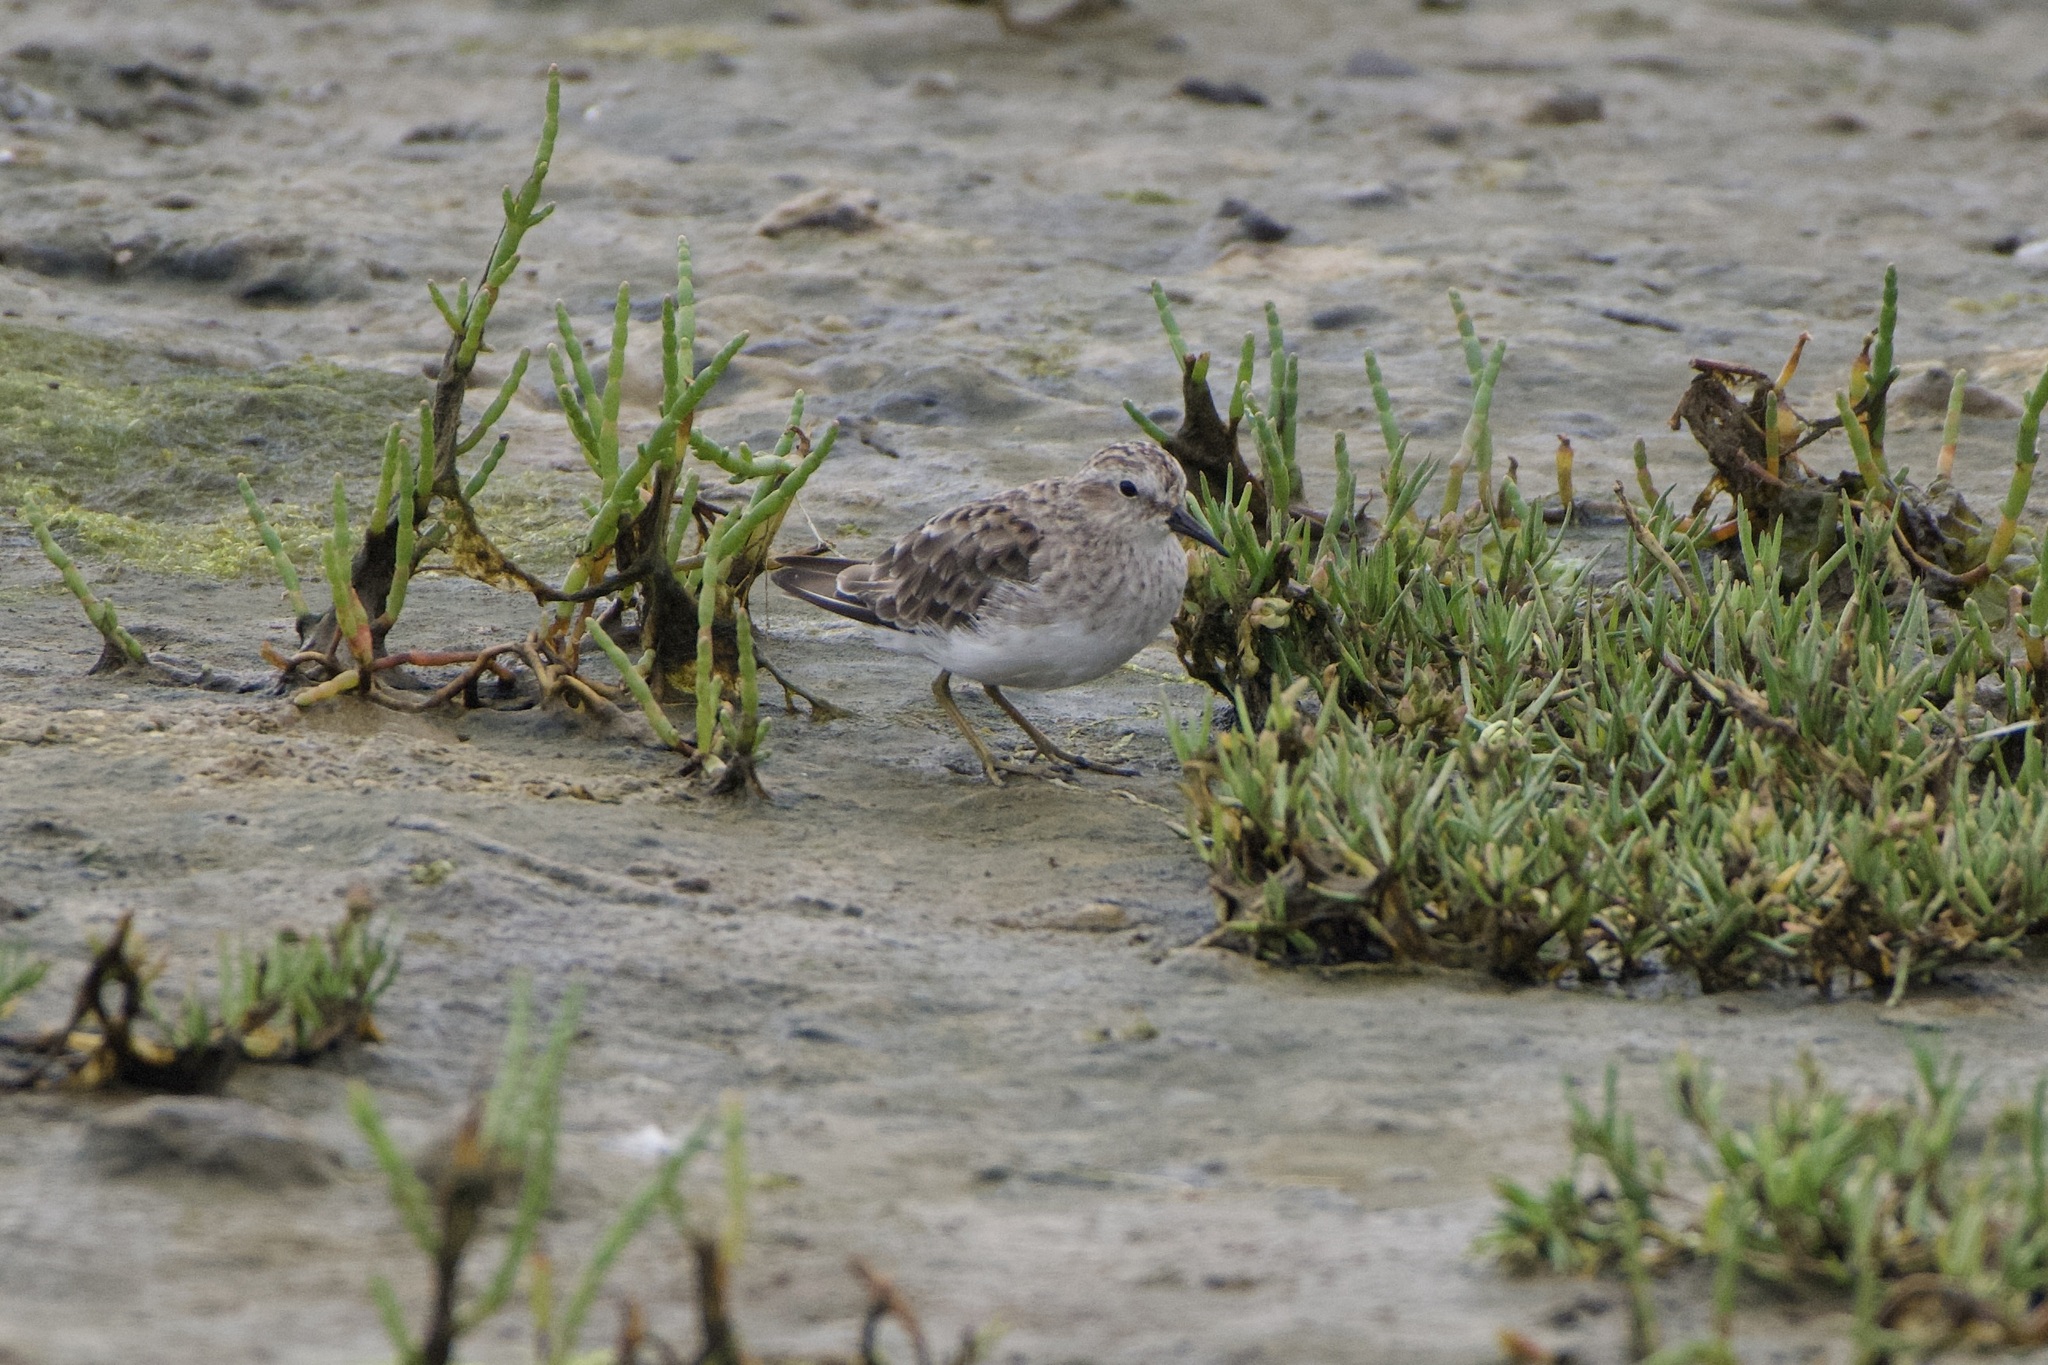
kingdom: Animalia
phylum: Chordata
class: Aves
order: Charadriiformes
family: Scolopacidae
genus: Calidris
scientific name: Calidris minutilla
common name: Least sandpiper
